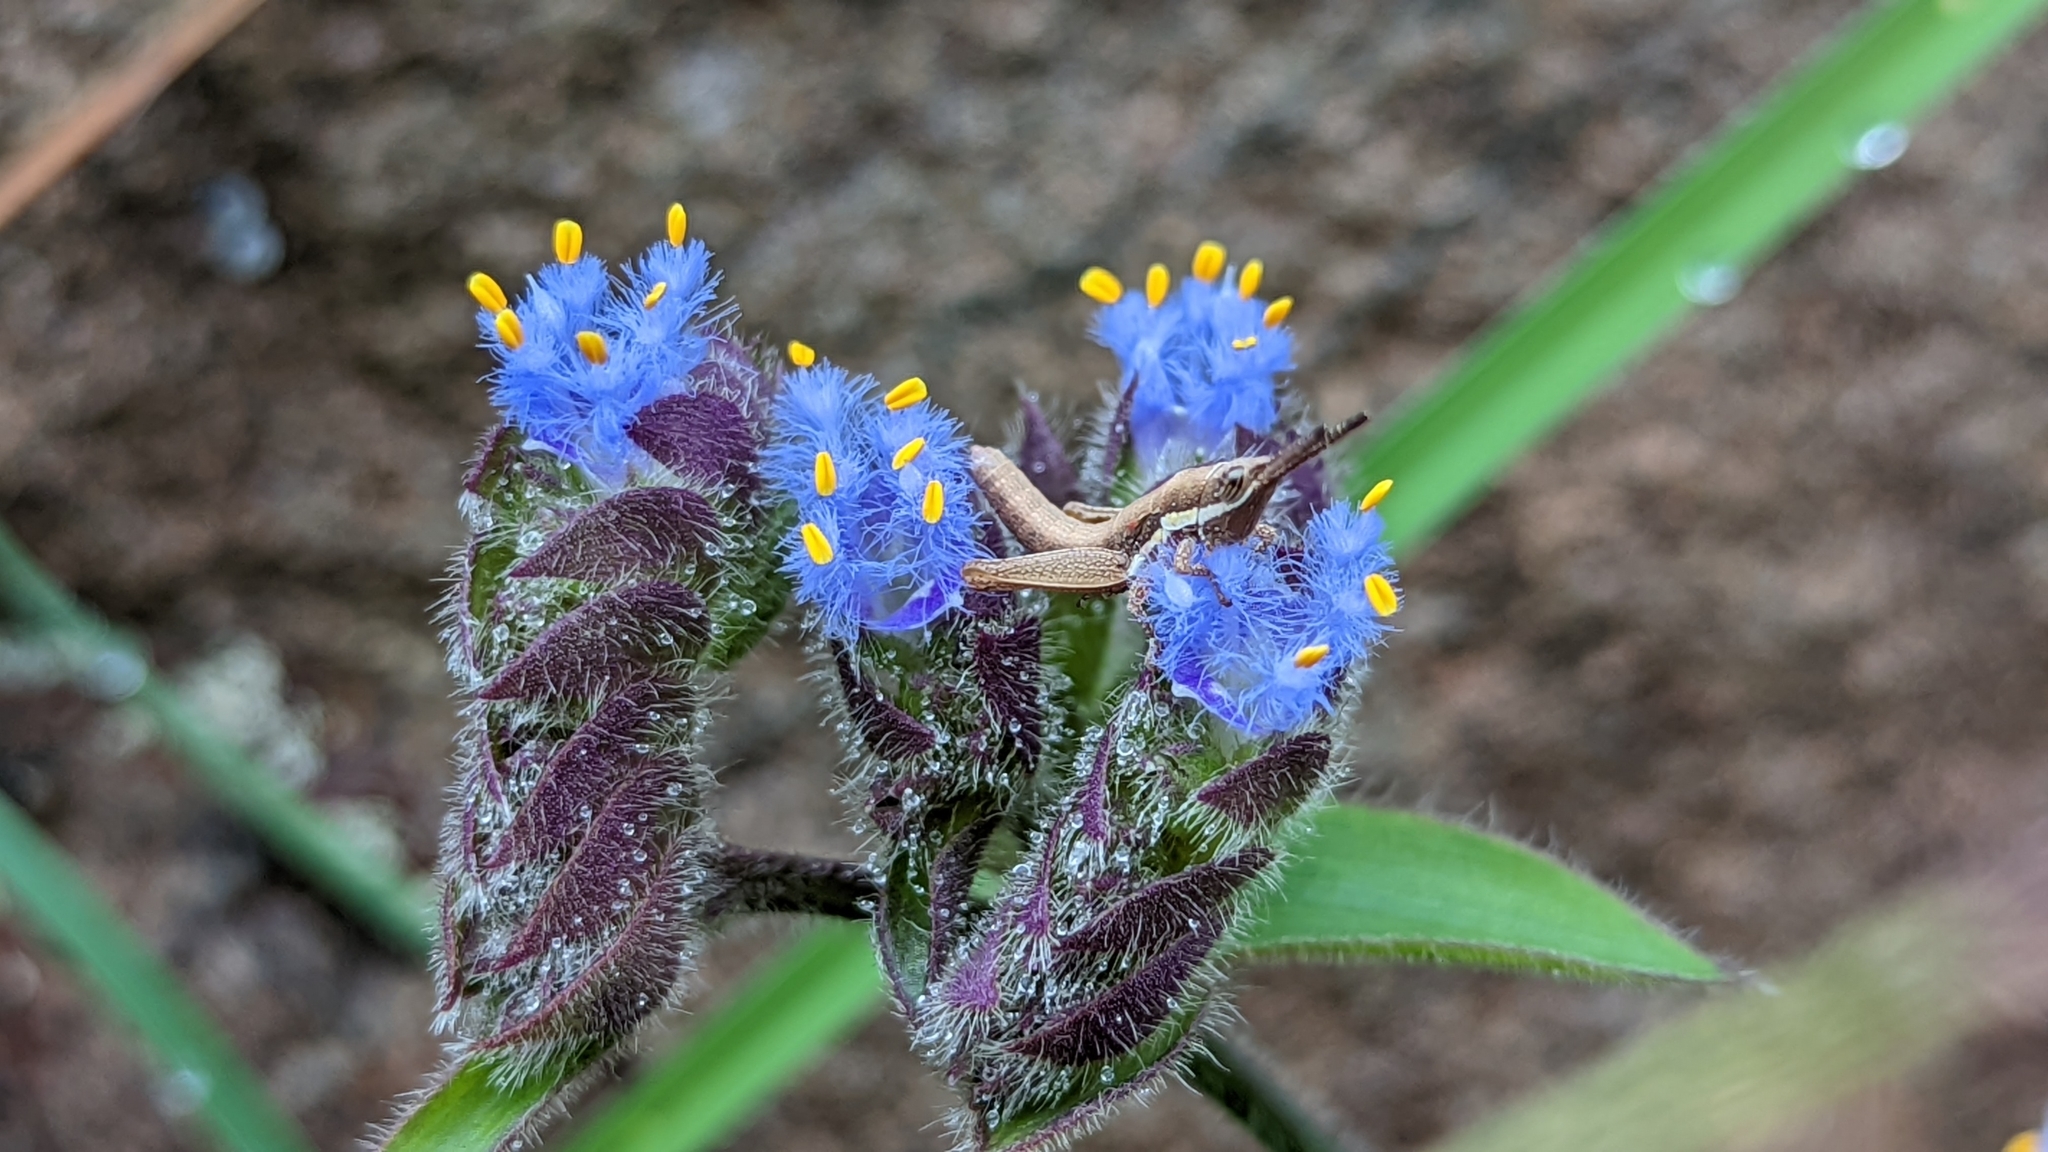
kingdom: Plantae
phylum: Tracheophyta
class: Liliopsida
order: Commelinales
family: Commelinaceae
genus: Cyanotis
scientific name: Cyanotis tuberosa
